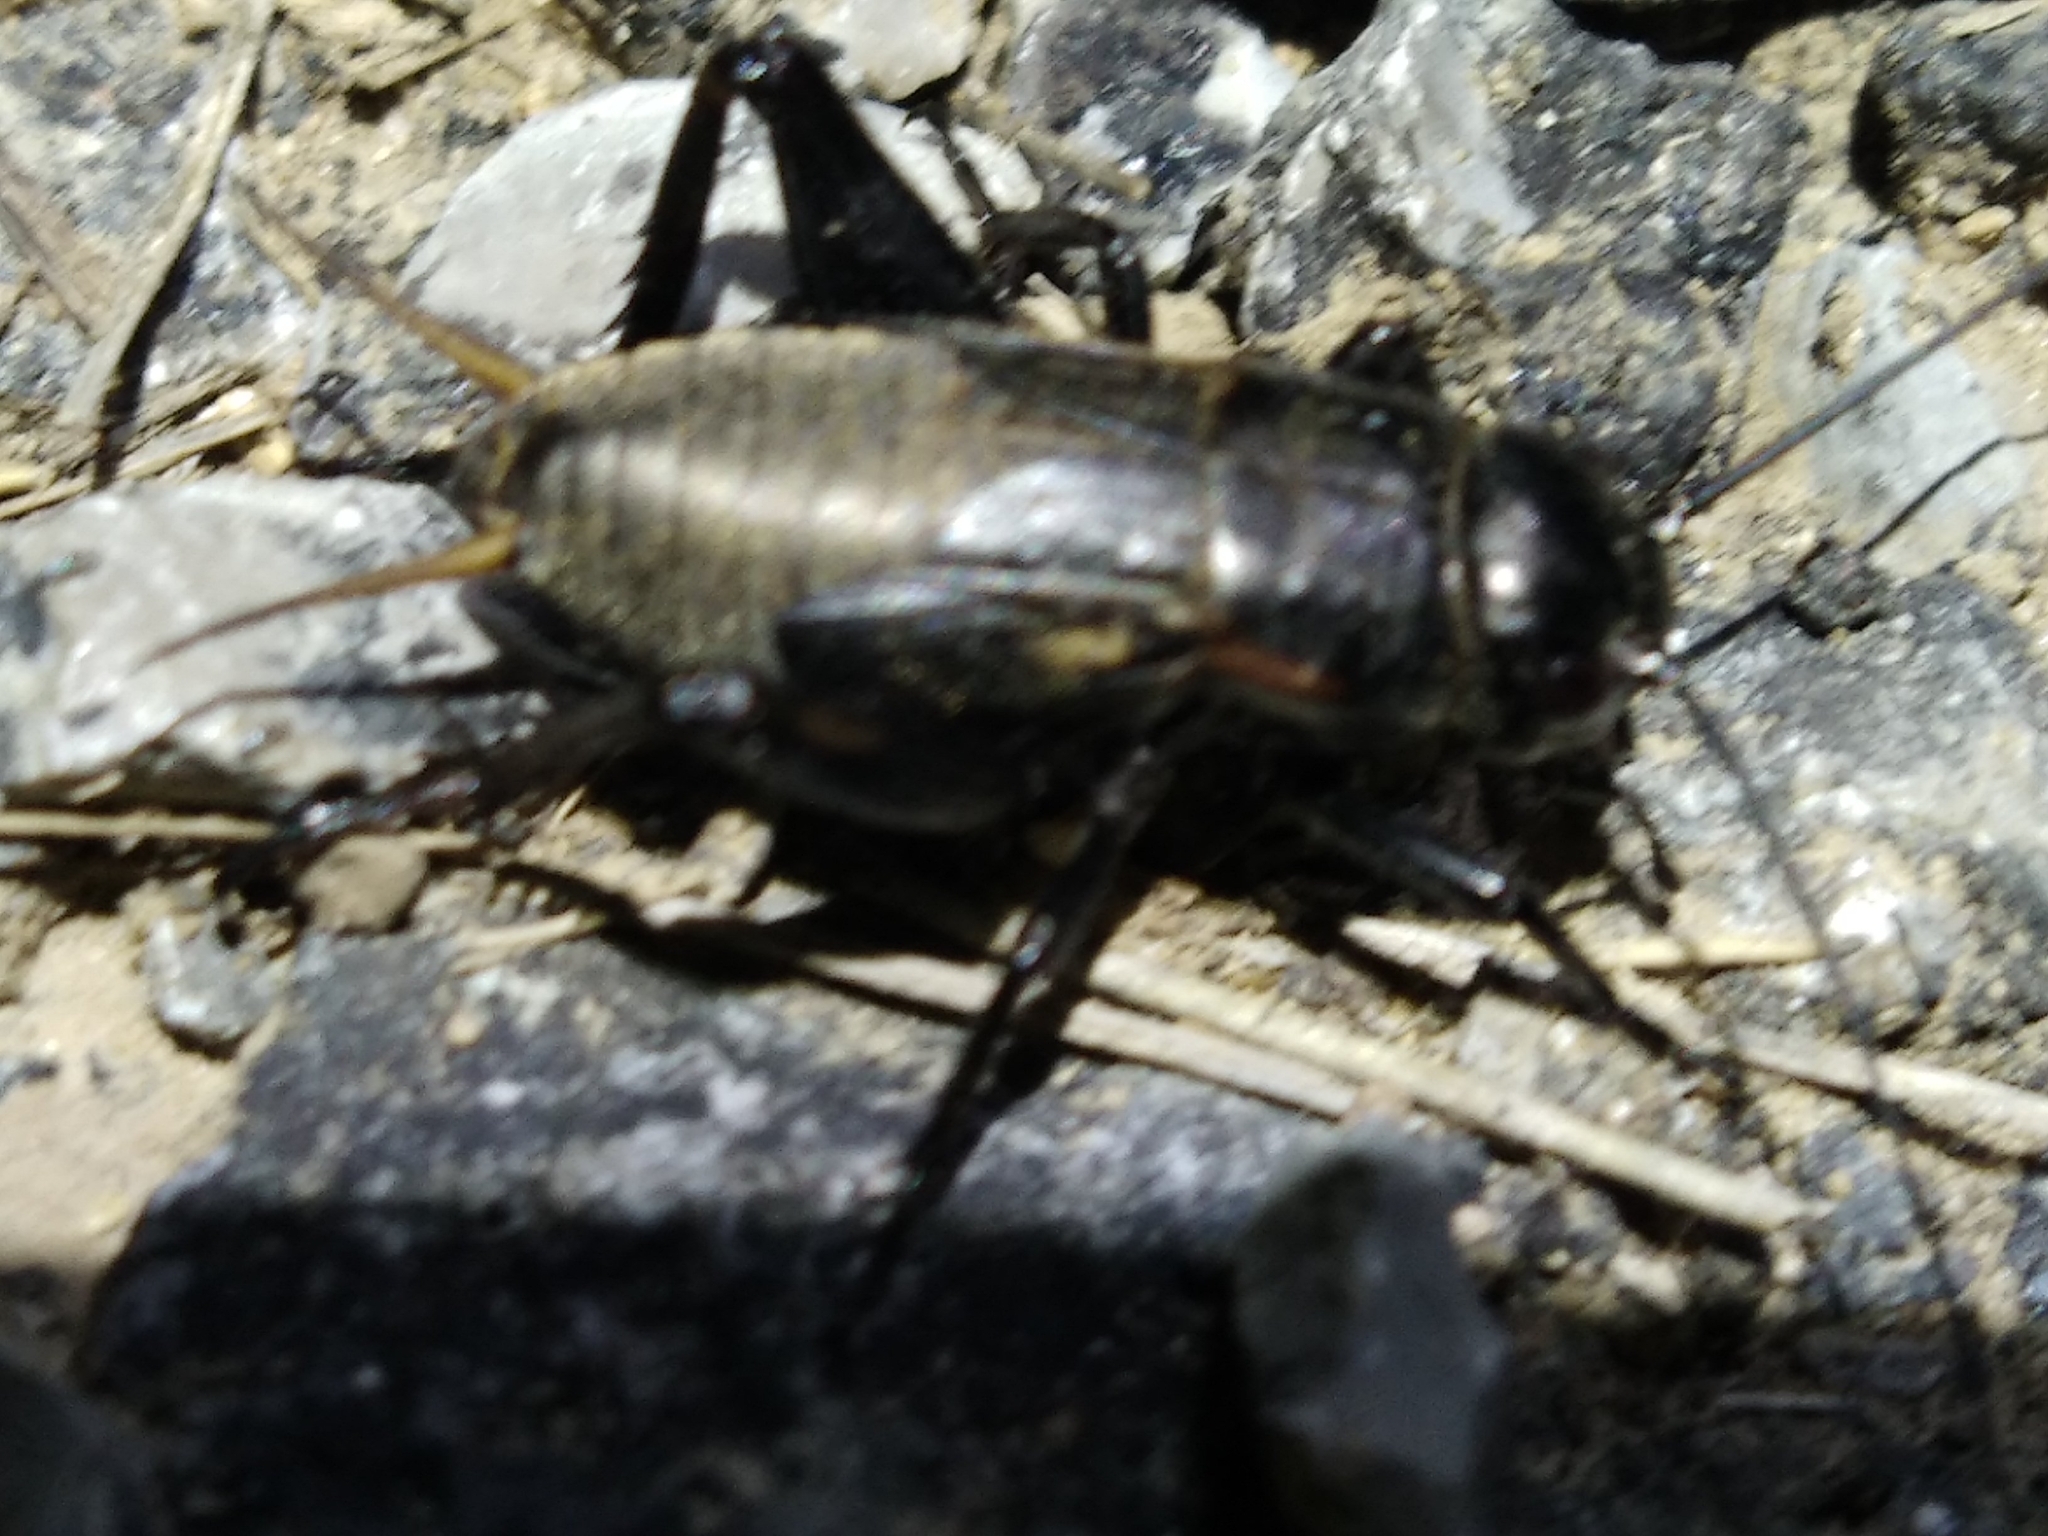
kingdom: Animalia
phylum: Arthropoda
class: Insecta
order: Orthoptera
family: Gryllidae
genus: Gryllus
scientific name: Gryllus bimaculatus
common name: Two-spotted cricket
